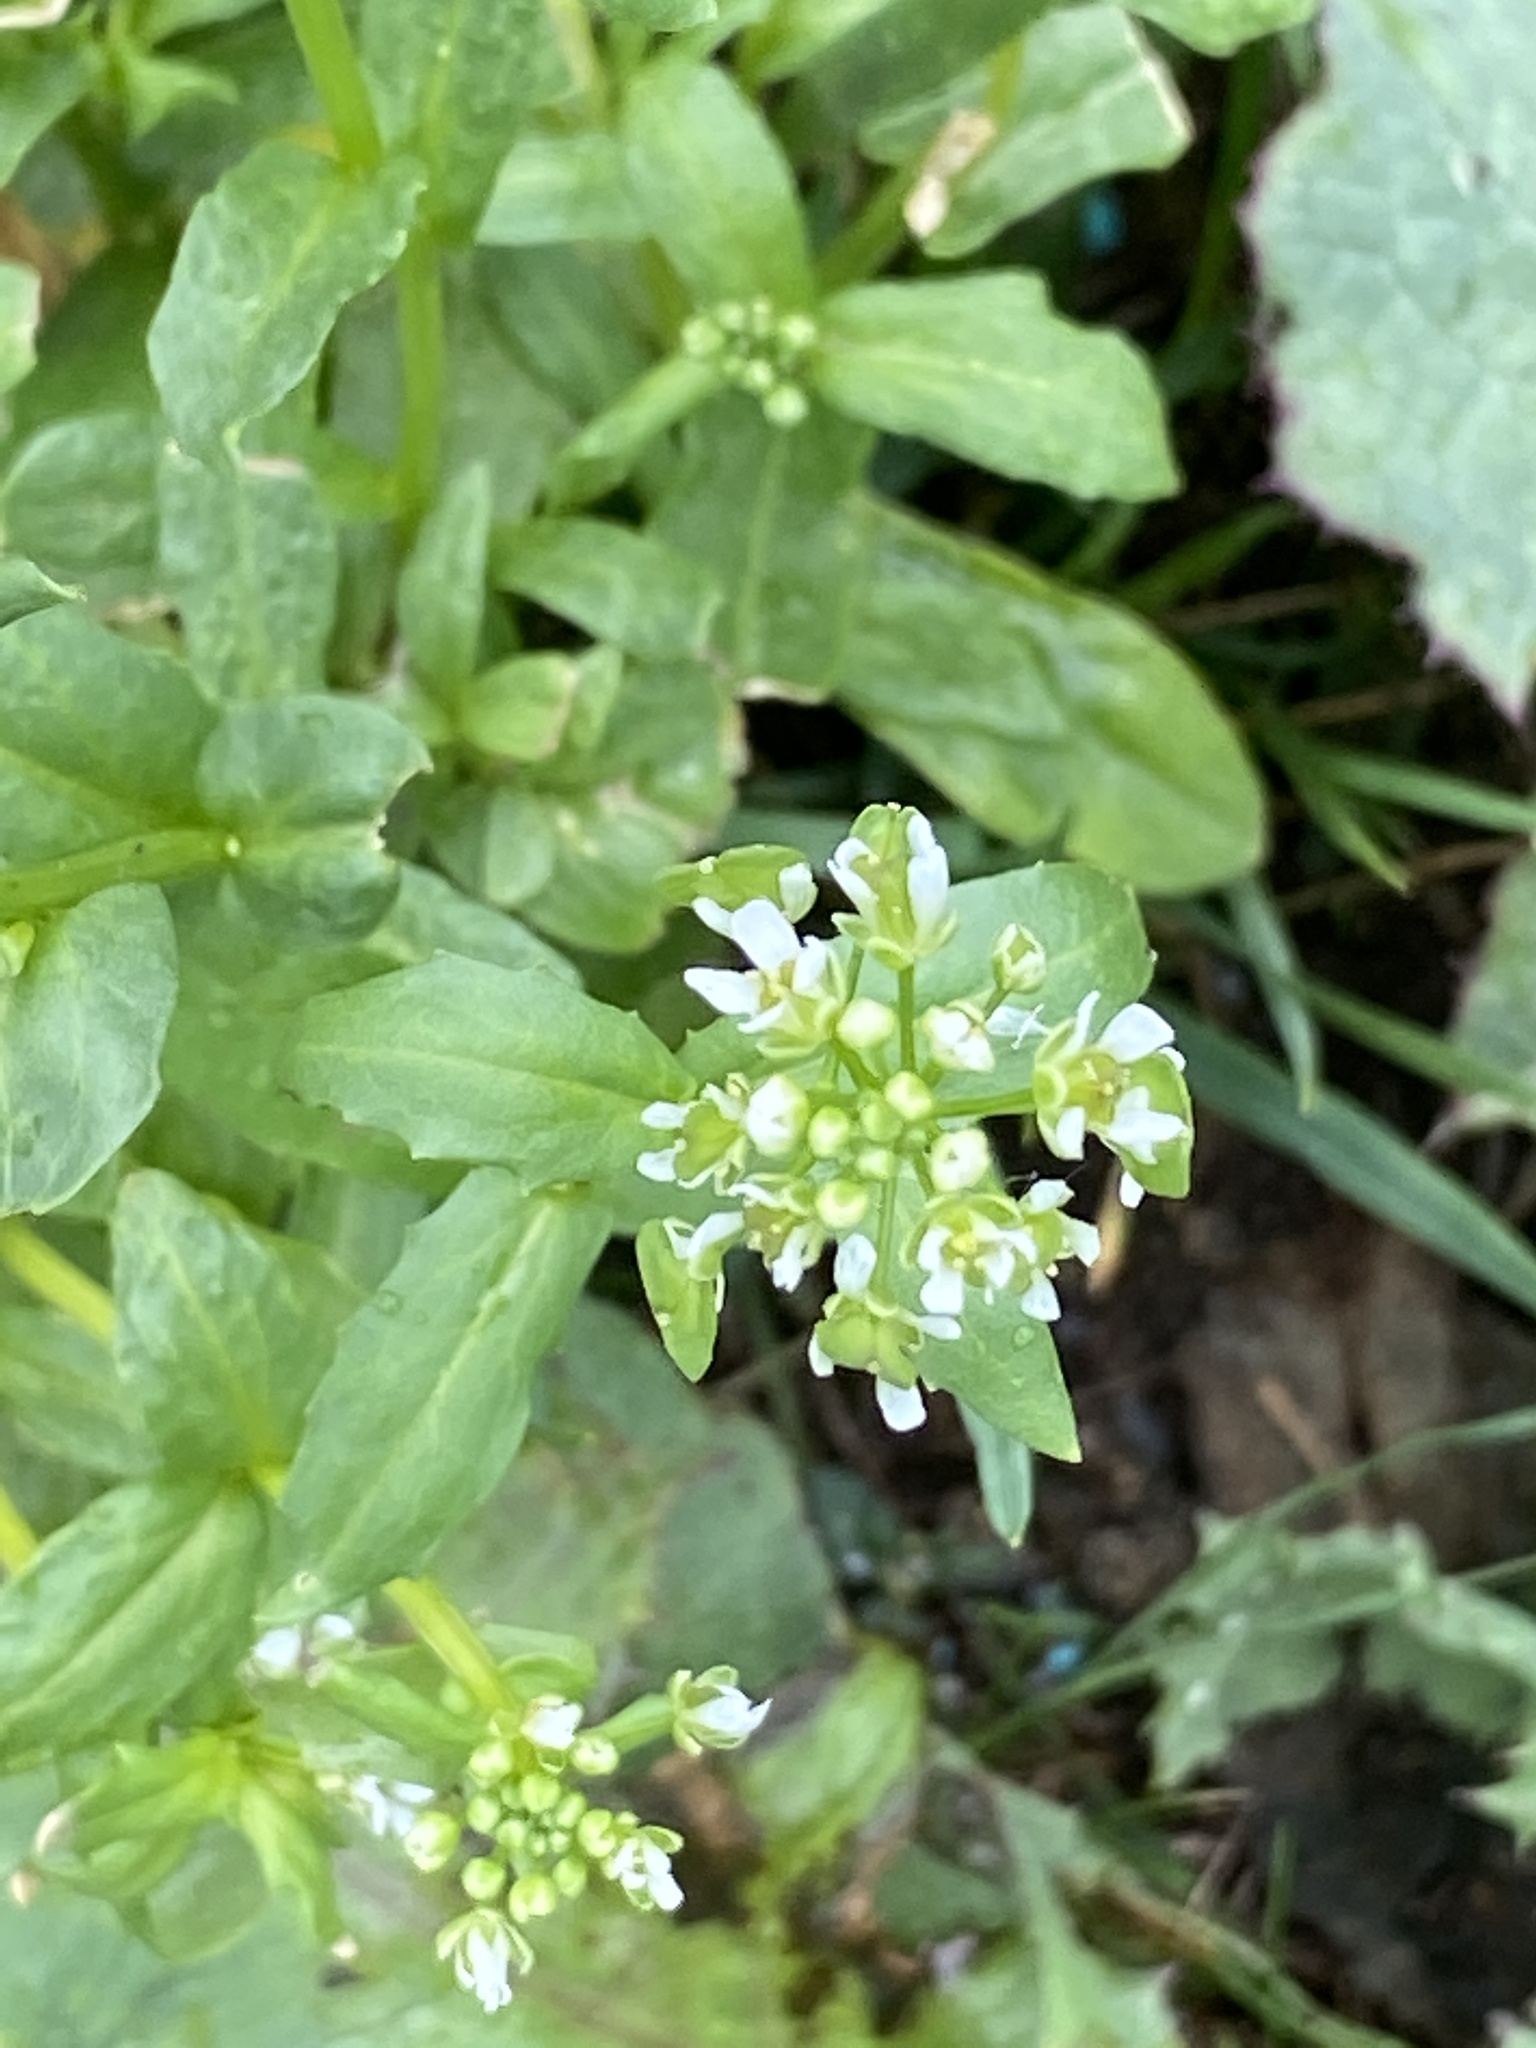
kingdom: Plantae
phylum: Tracheophyta
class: Magnoliopsida
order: Brassicales
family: Brassicaceae
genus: Thlaspi
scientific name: Thlaspi arvense
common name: Field pennycress
